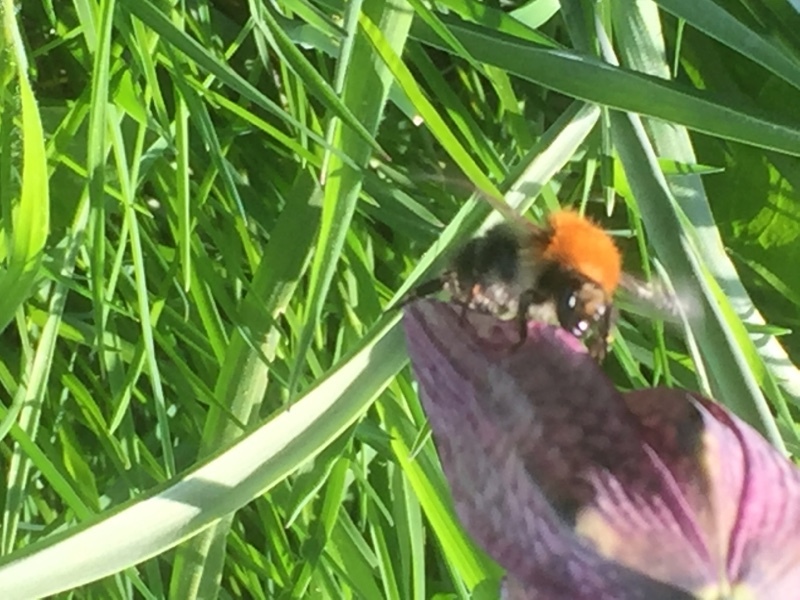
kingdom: Animalia
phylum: Arthropoda
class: Insecta
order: Hymenoptera
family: Apidae
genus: Bombus
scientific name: Bombus pascuorum
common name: Common carder bee
